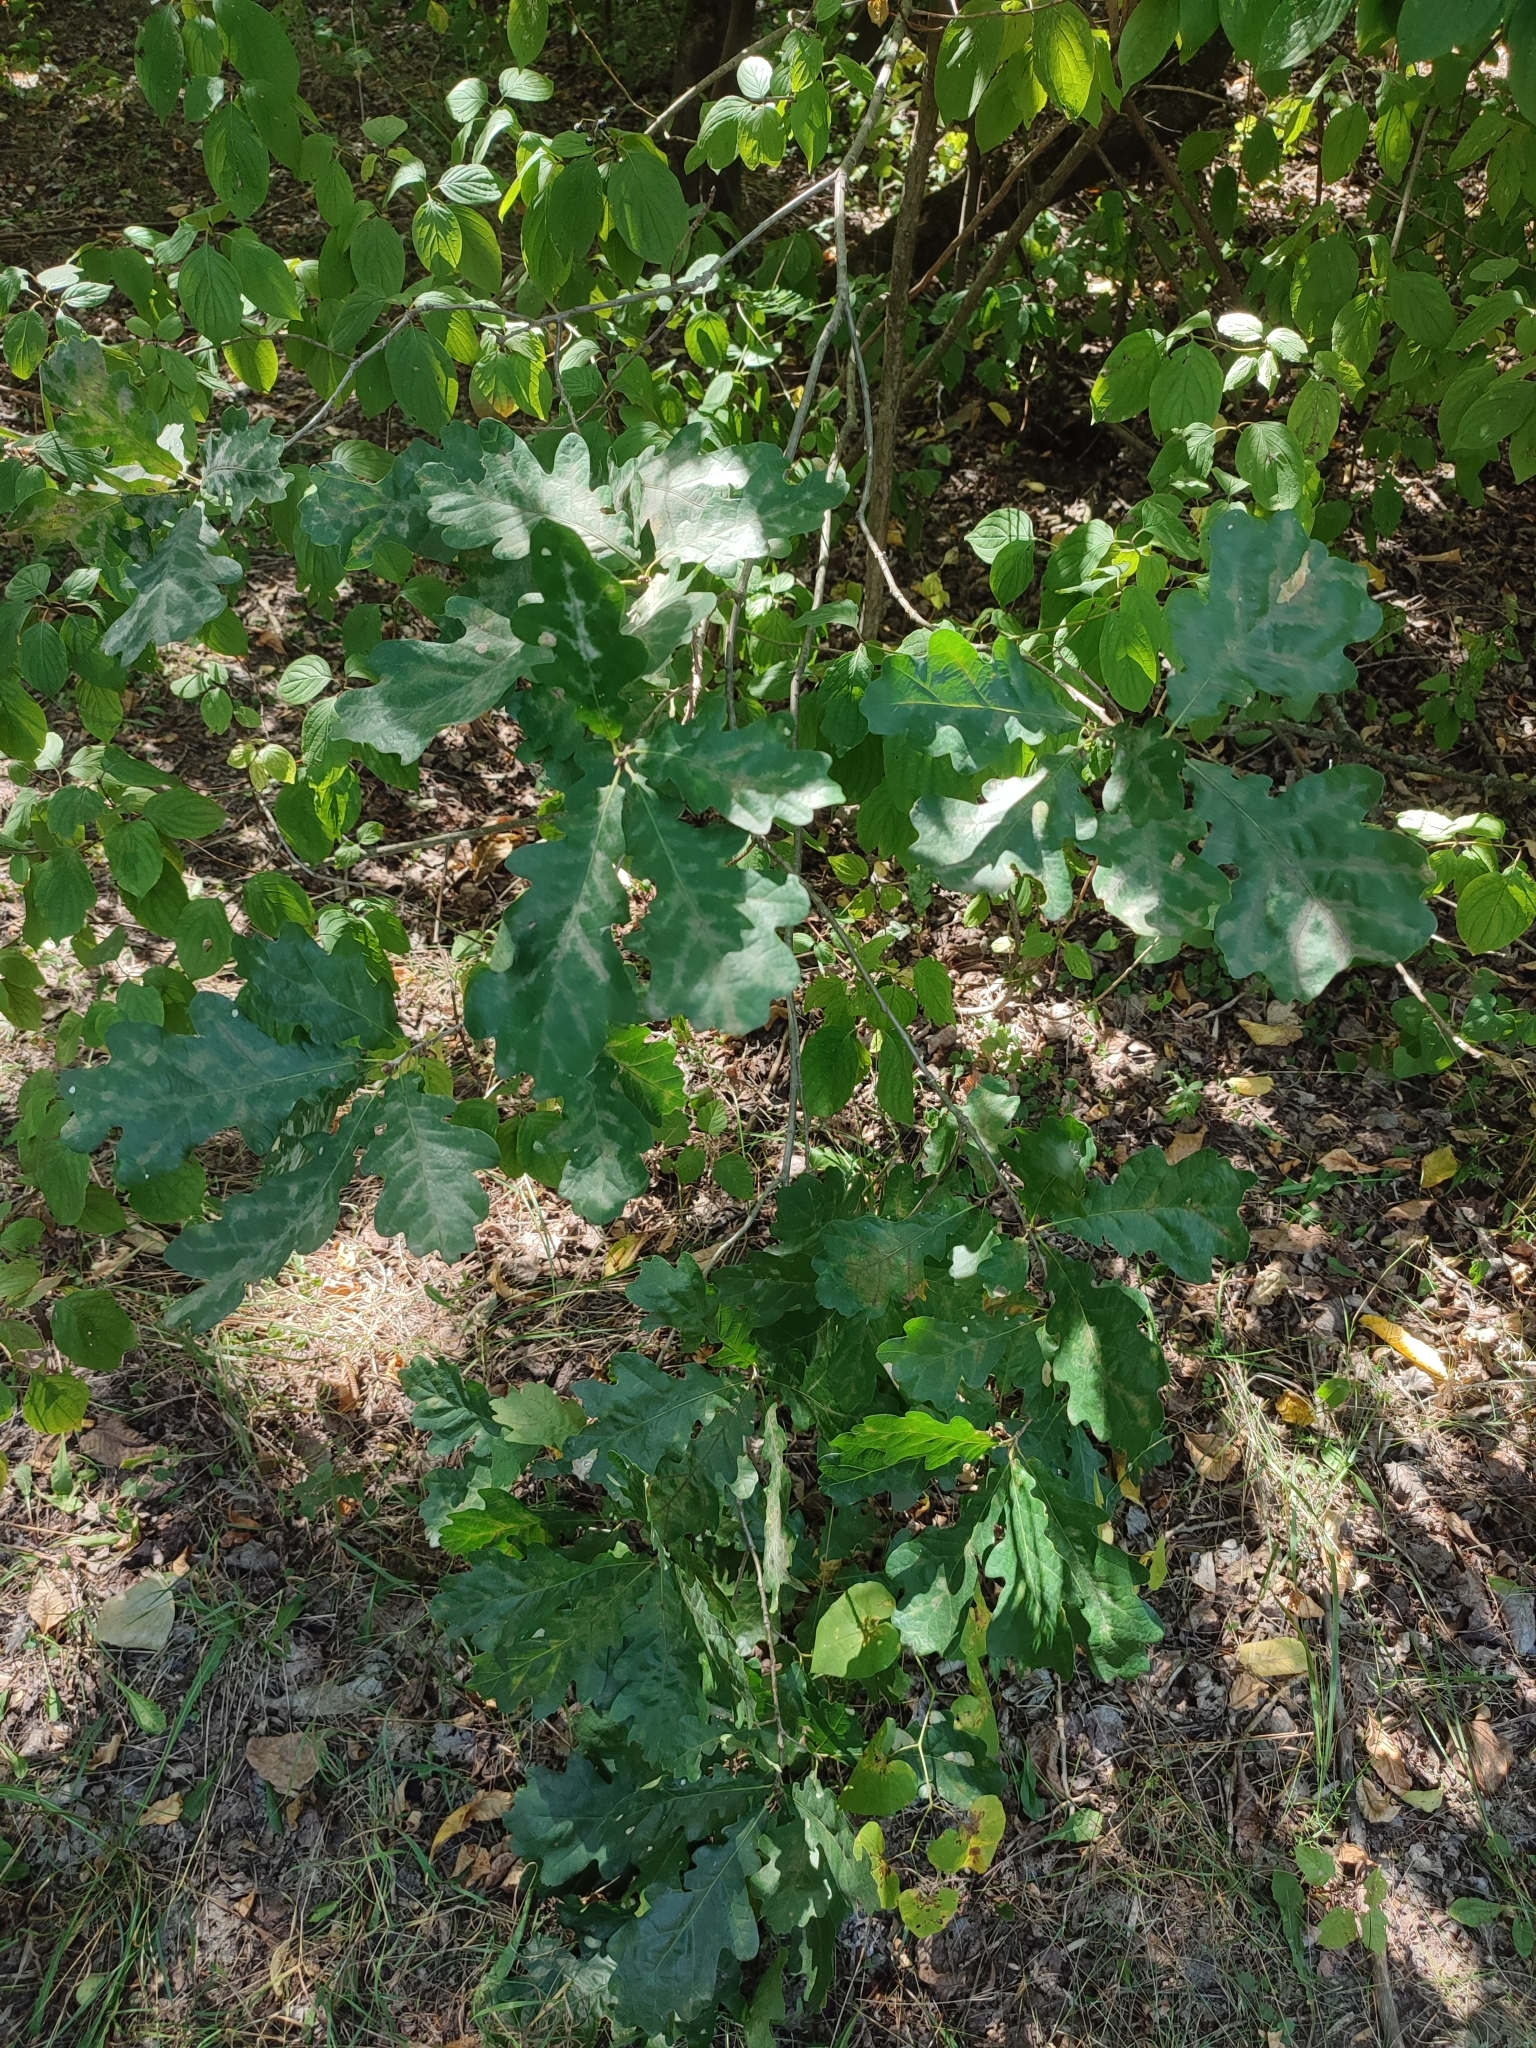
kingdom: Plantae
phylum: Tracheophyta
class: Magnoliopsida
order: Fagales
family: Fagaceae
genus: Quercus
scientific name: Quercus robur
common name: Pedunculate oak
